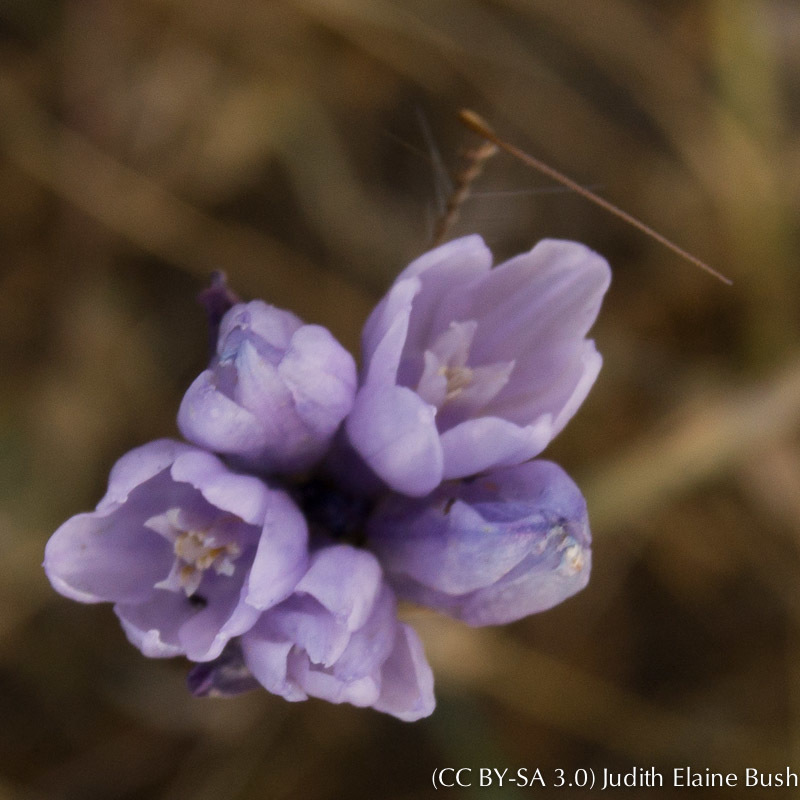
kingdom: Plantae
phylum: Tracheophyta
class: Liliopsida
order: Asparagales
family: Asparagaceae
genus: Dipterostemon
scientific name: Dipterostemon capitatus
